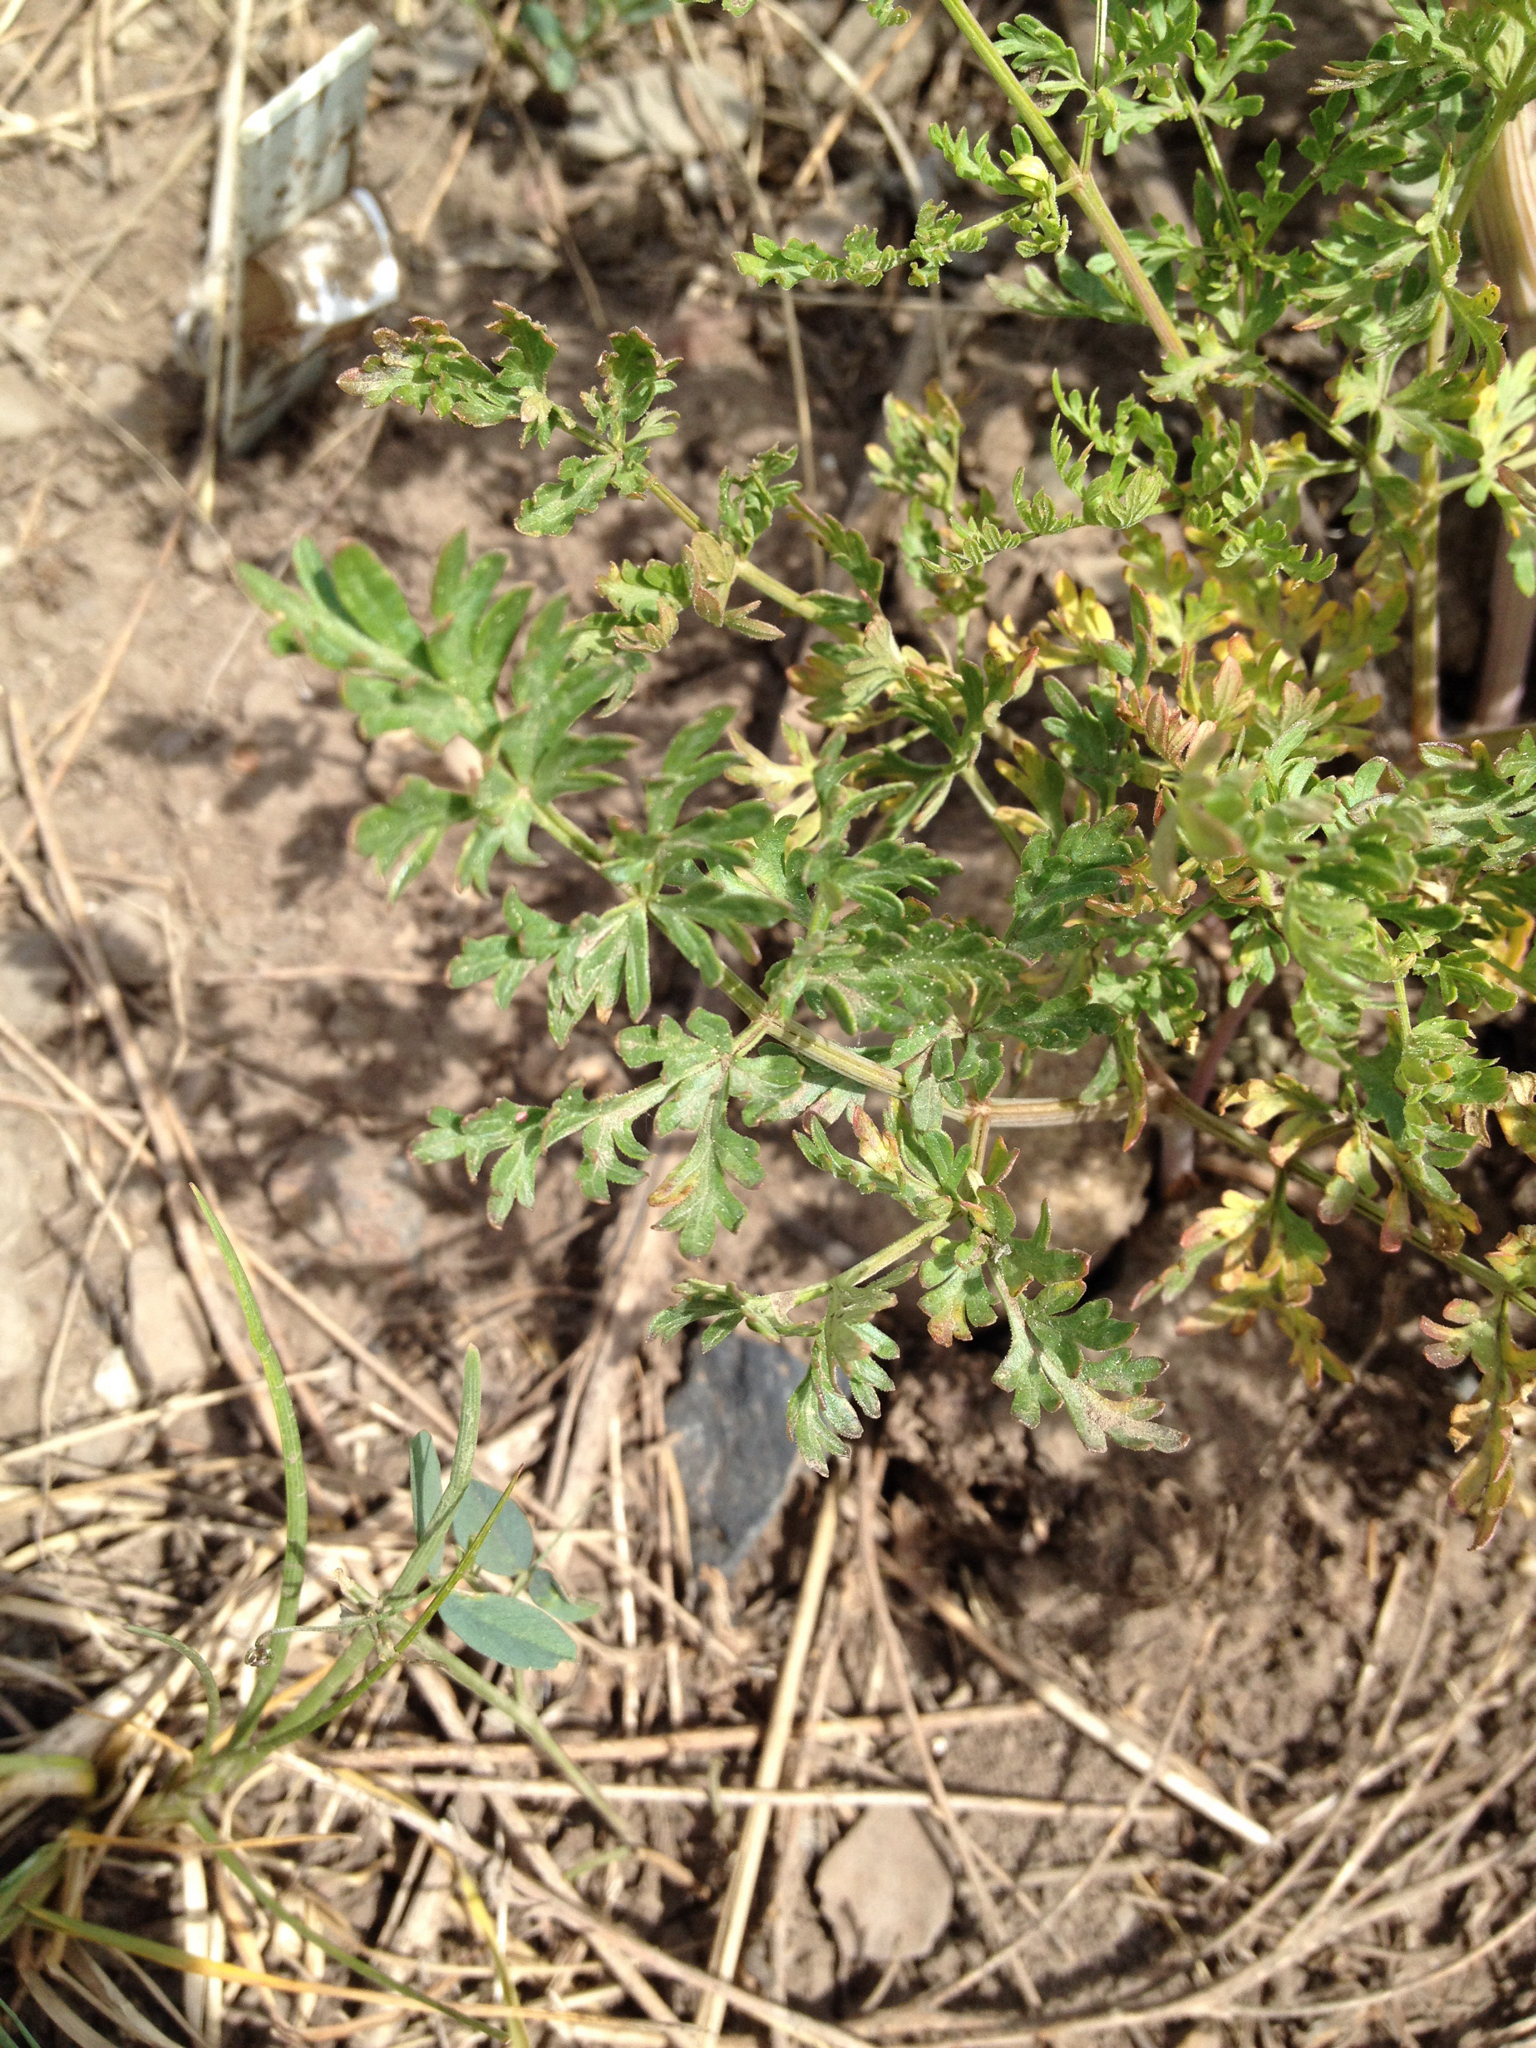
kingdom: Plantae
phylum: Tracheophyta
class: Magnoliopsida
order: Apiales
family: Apiaceae
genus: Ligusticum
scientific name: Ligusticum porteri
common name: Mountain lovage
